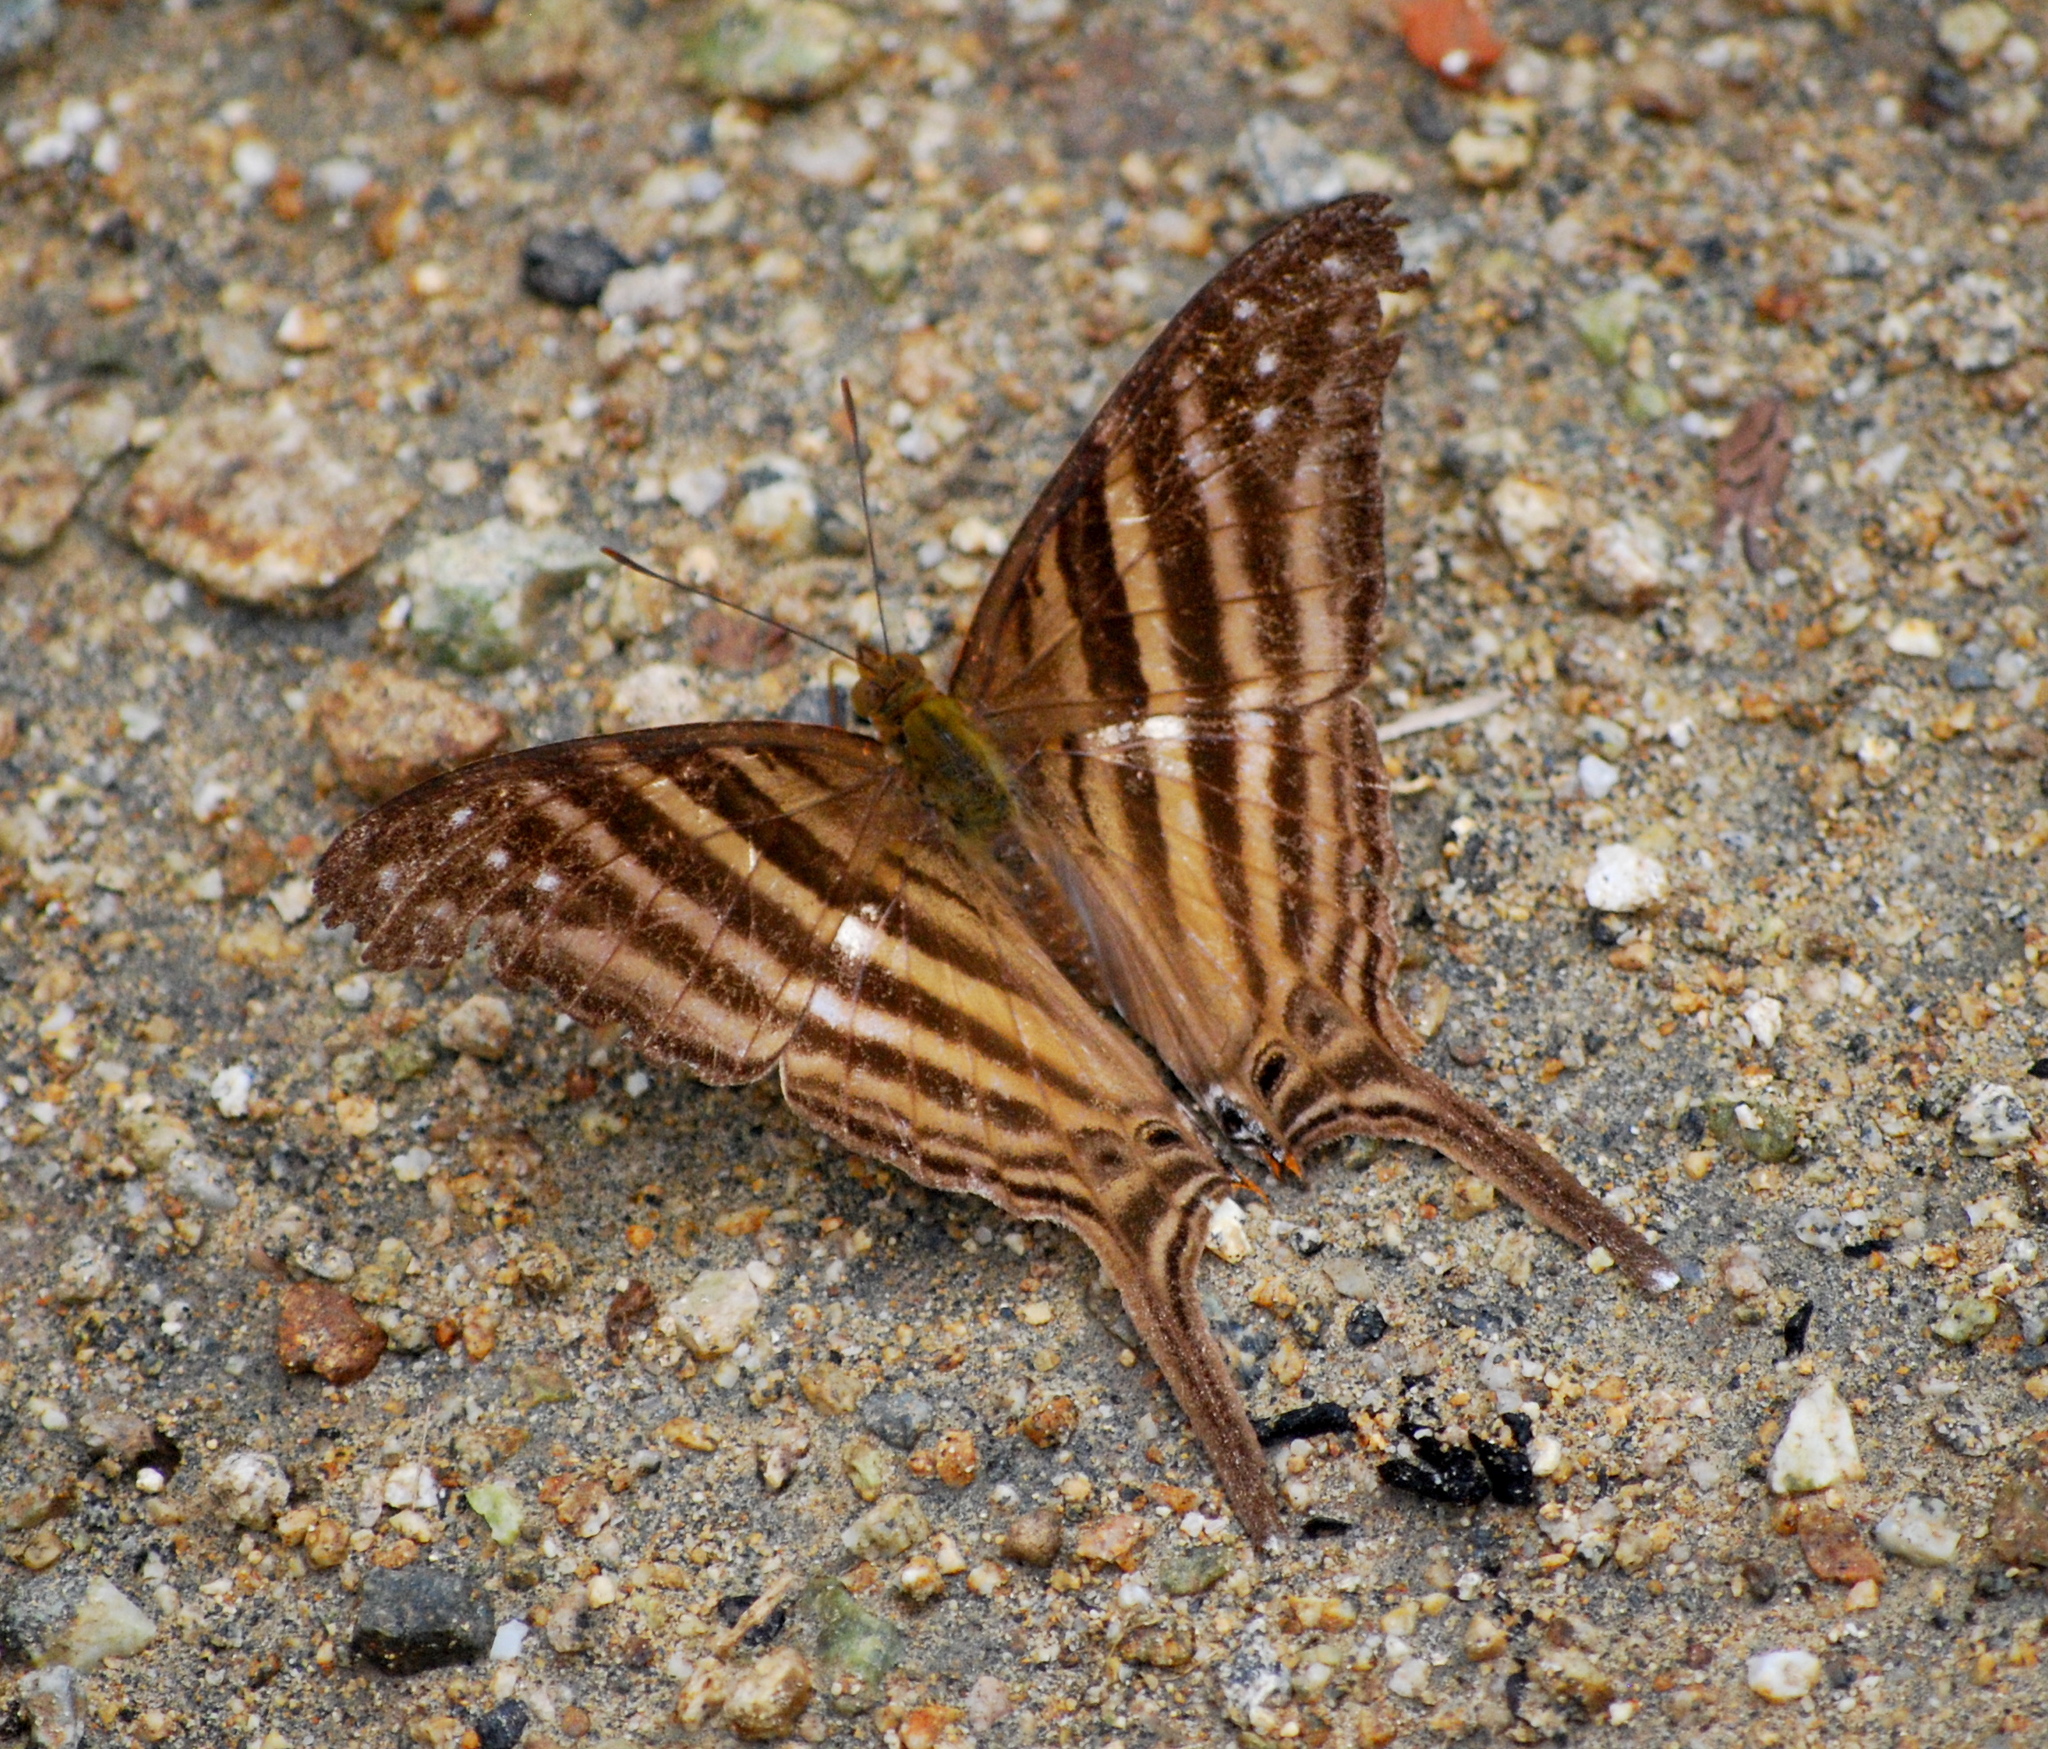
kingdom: Animalia
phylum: Arthropoda
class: Insecta
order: Lepidoptera
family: Nymphalidae
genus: Marpesia
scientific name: Marpesia chiron
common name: Many-banded daggerwing
